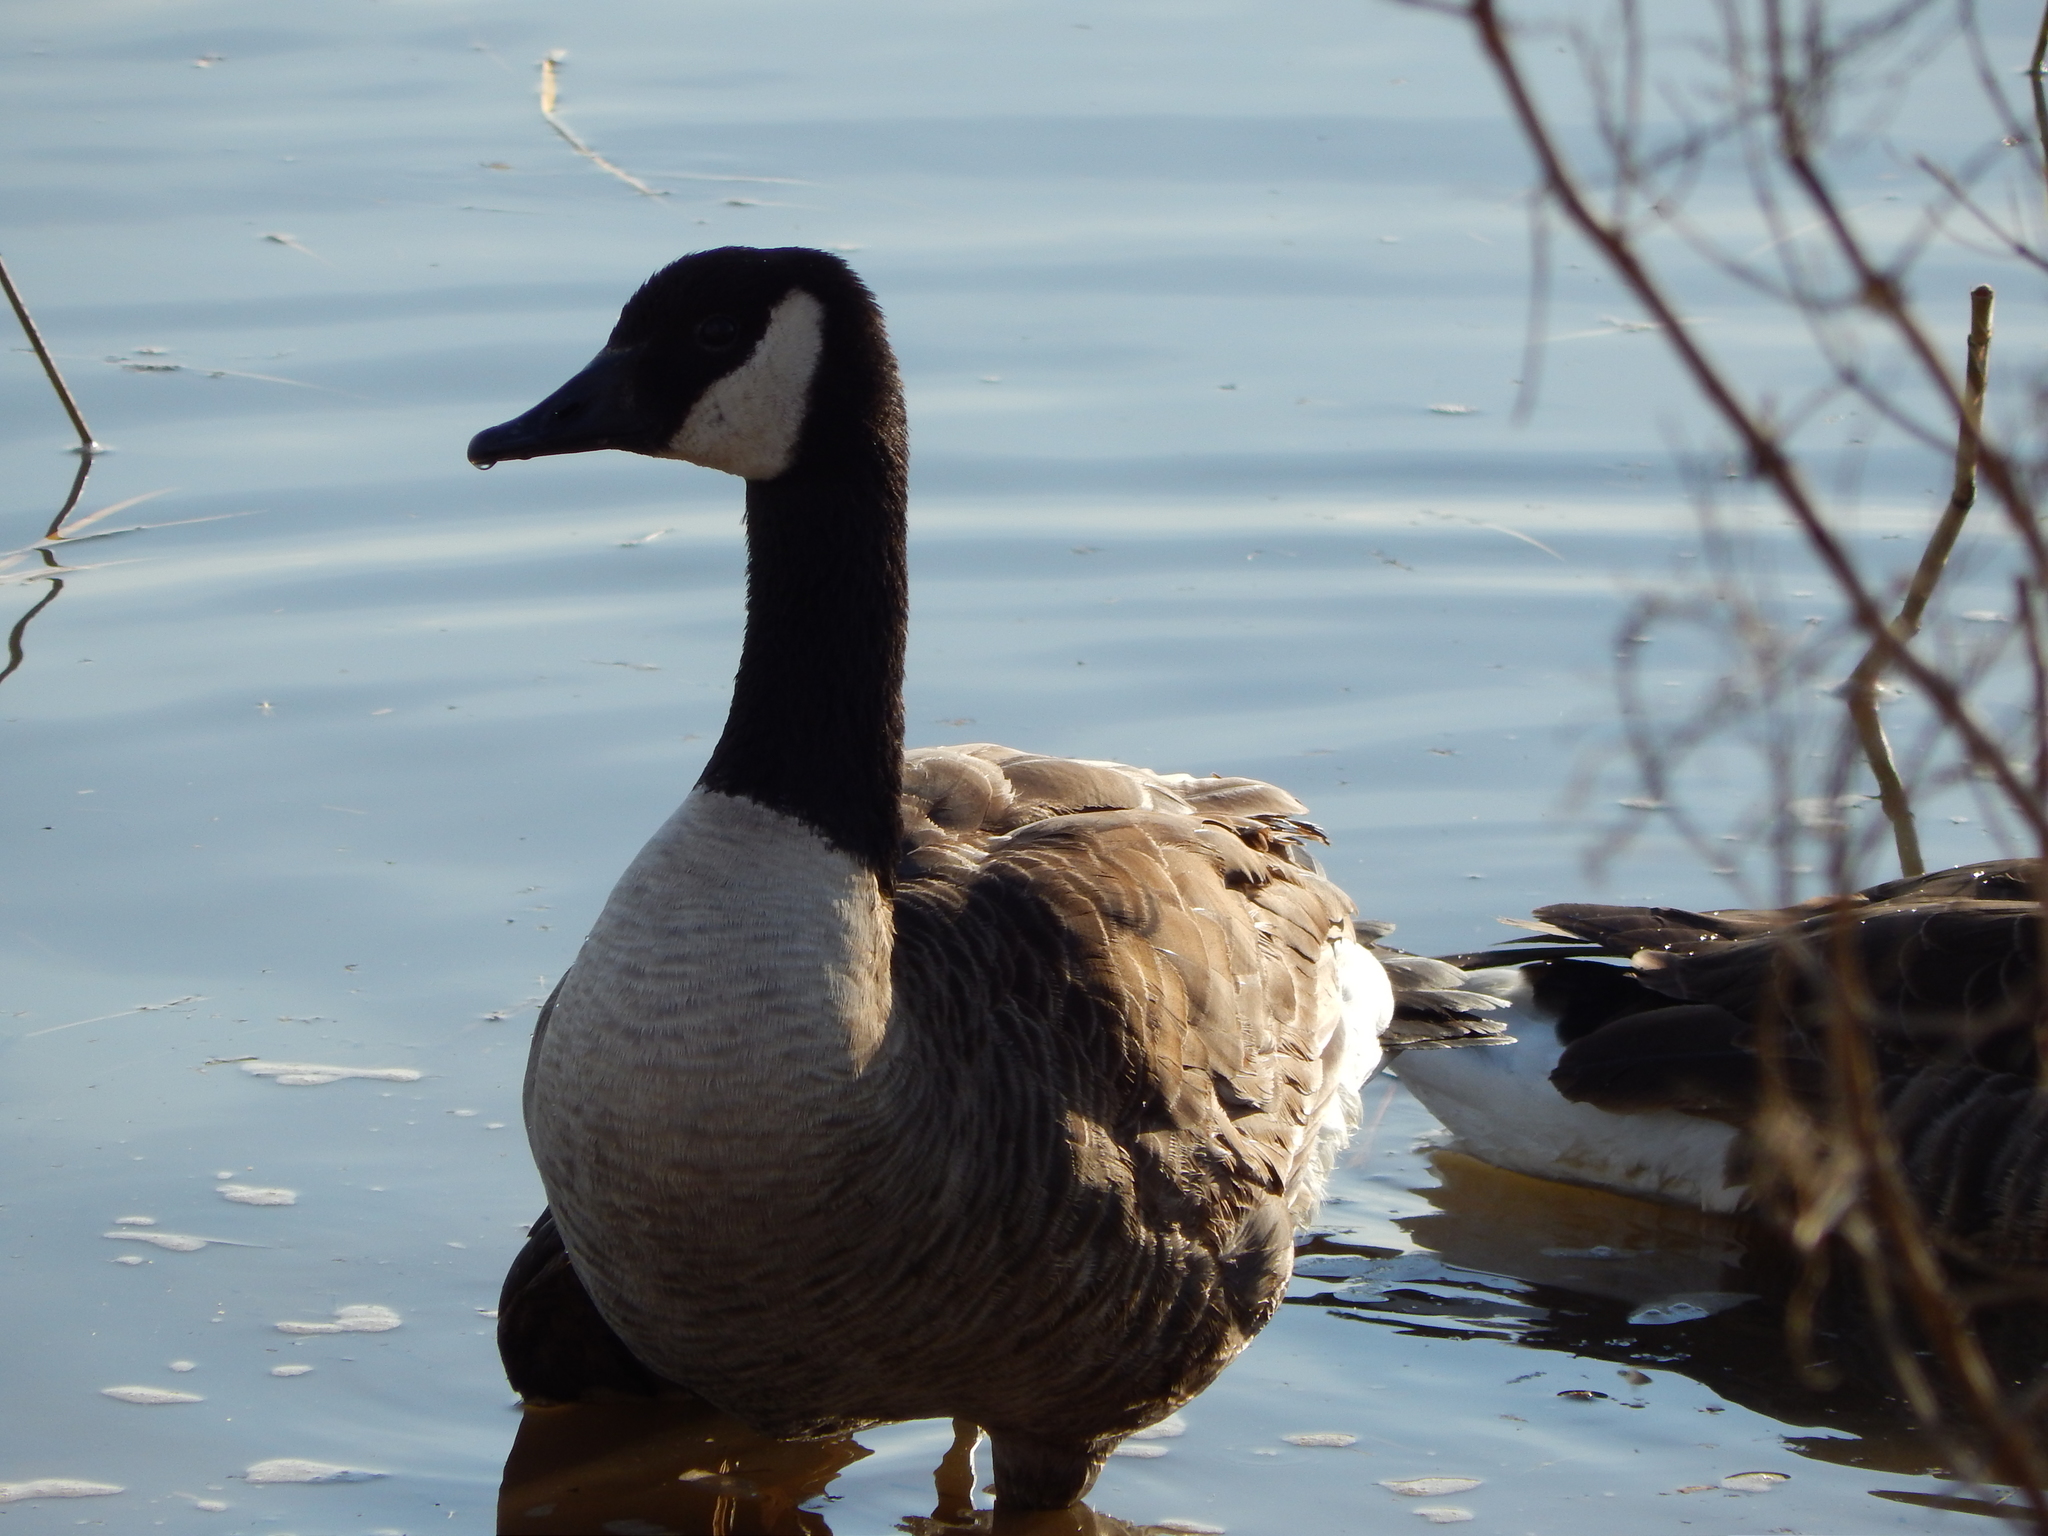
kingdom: Animalia
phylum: Chordata
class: Aves
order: Anseriformes
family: Anatidae
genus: Branta
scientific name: Branta canadensis
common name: Canada goose
